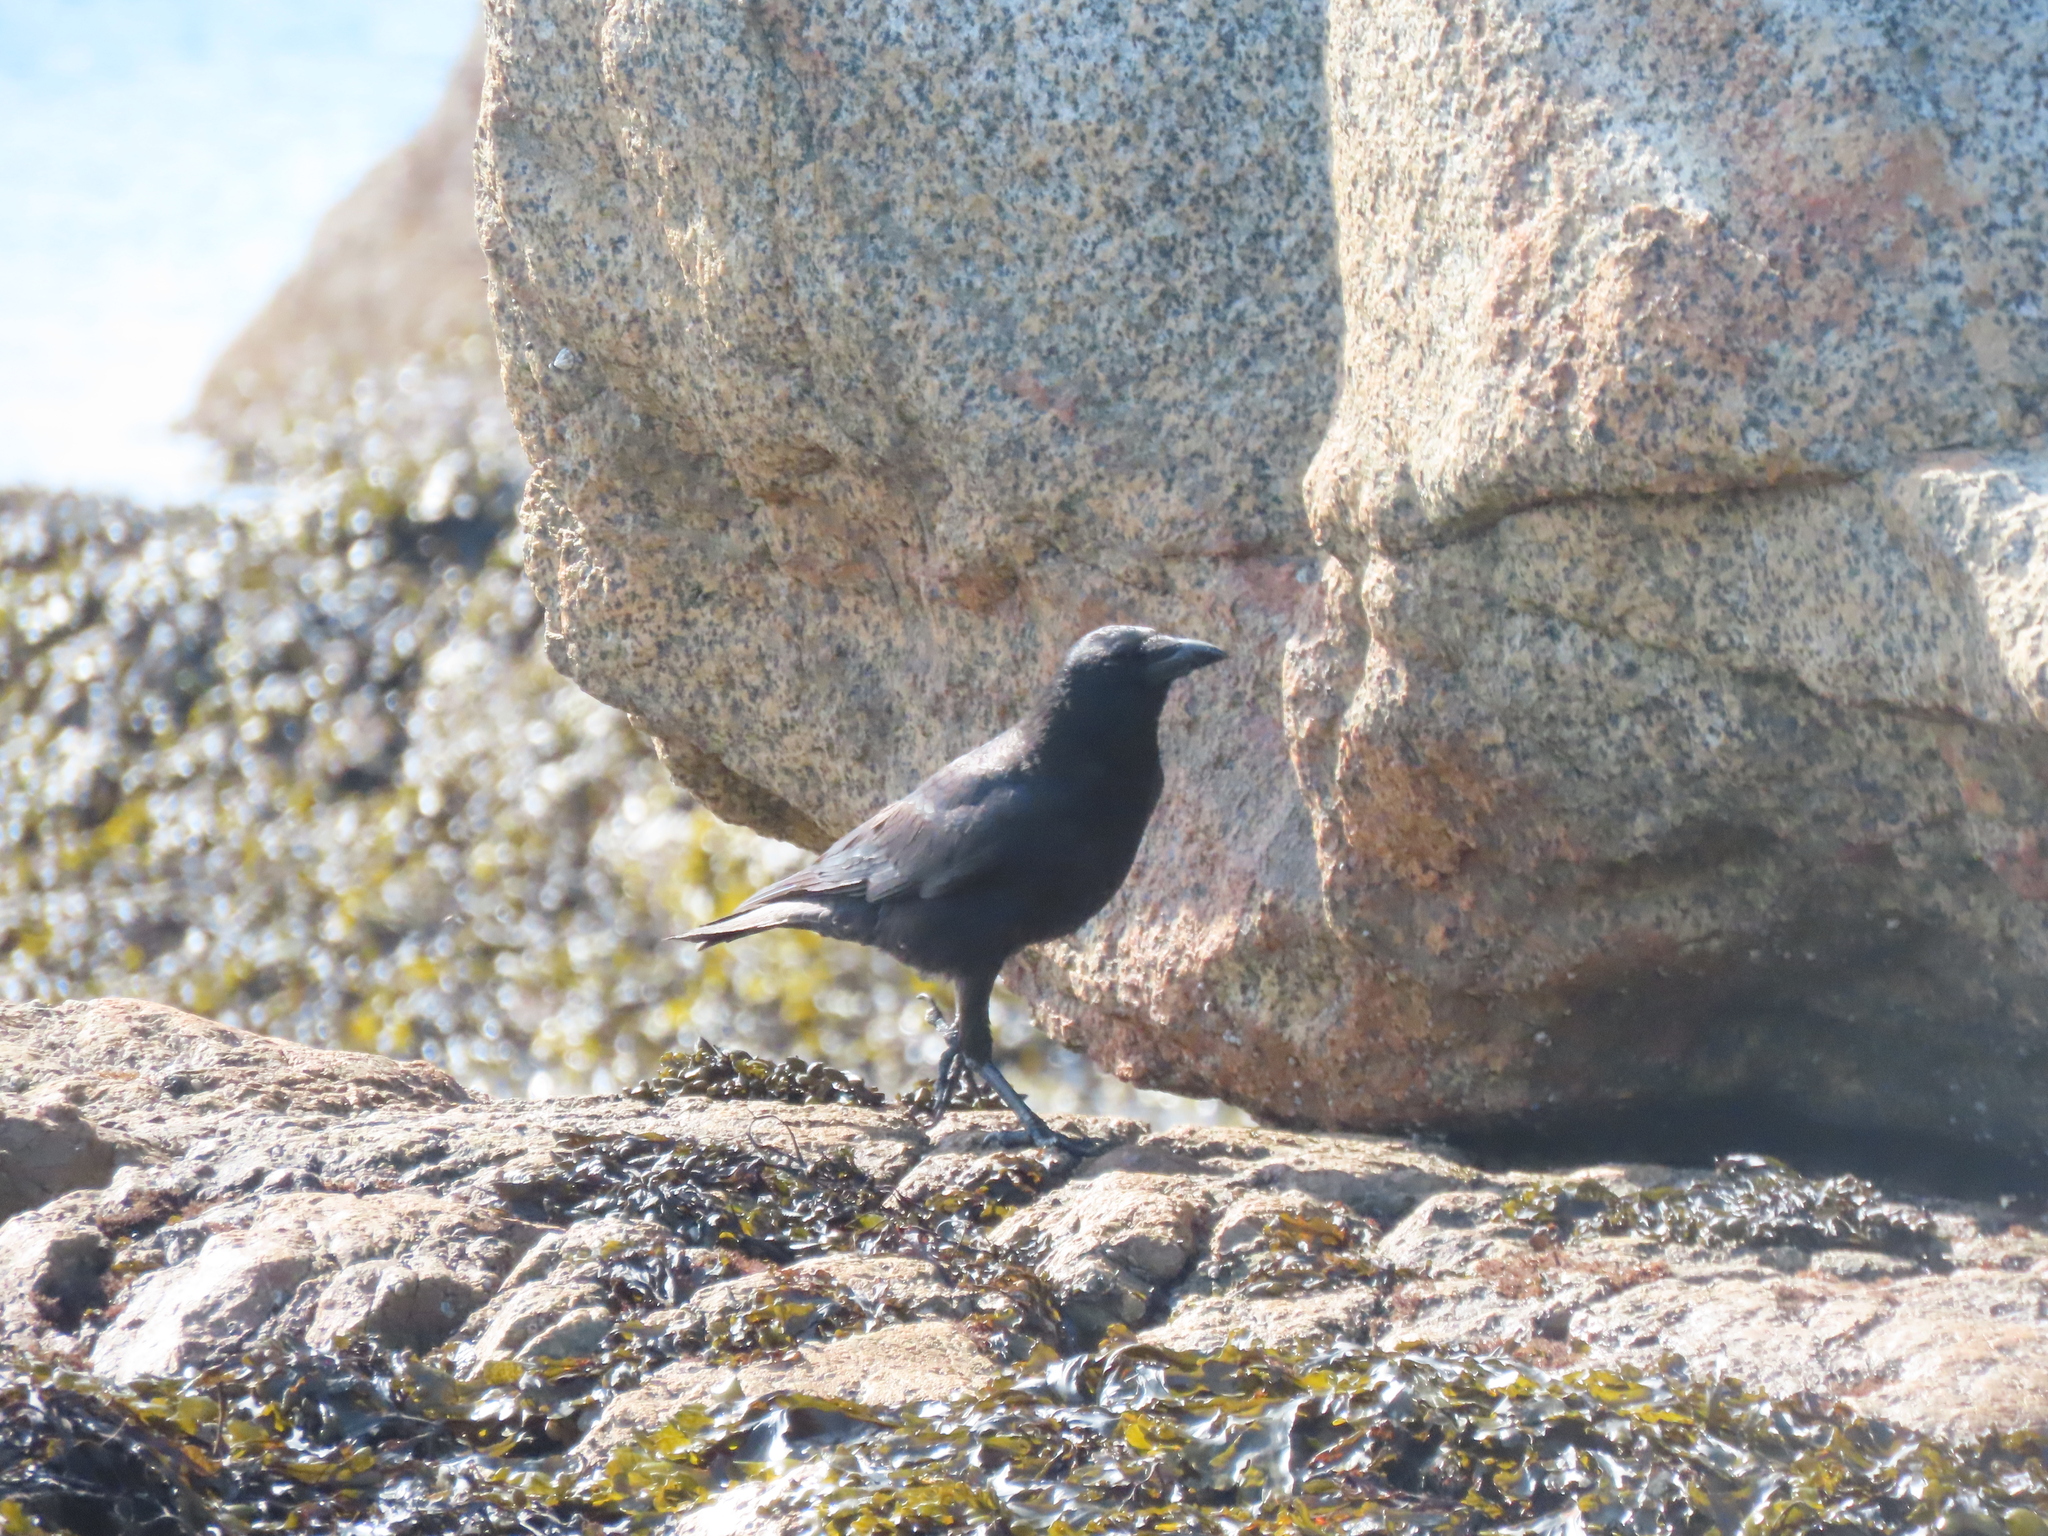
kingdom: Animalia
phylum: Chordata
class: Aves
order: Passeriformes
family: Corvidae
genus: Corvus
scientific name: Corvus brachyrhynchos
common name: American crow
